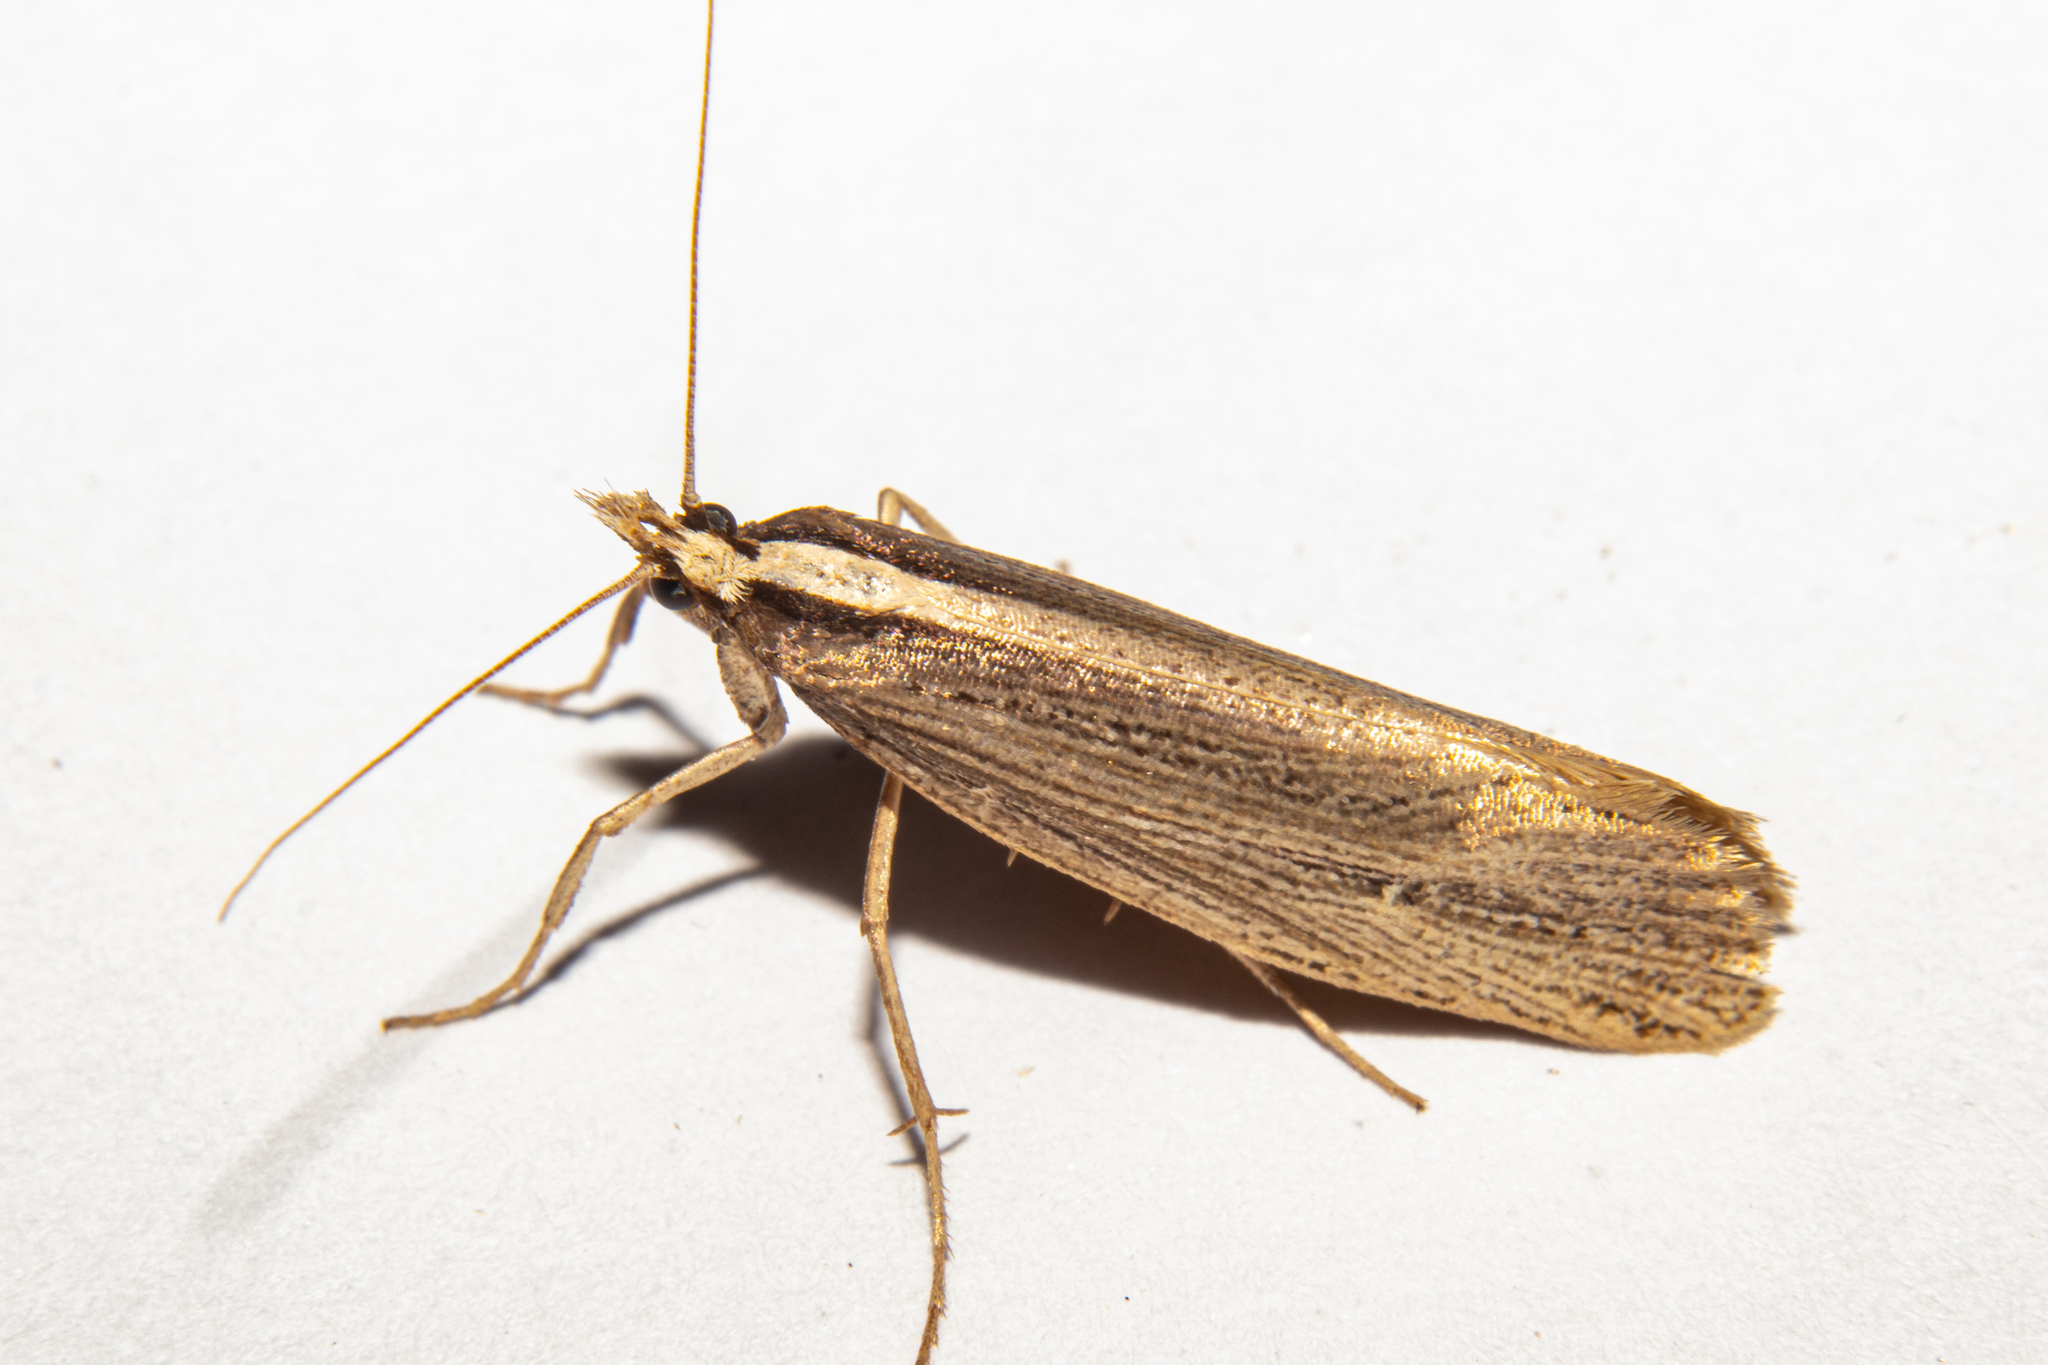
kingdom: Animalia
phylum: Arthropoda
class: Insecta
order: Lepidoptera
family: Plutellidae
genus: Proditrix
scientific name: Proditrix megalynta
